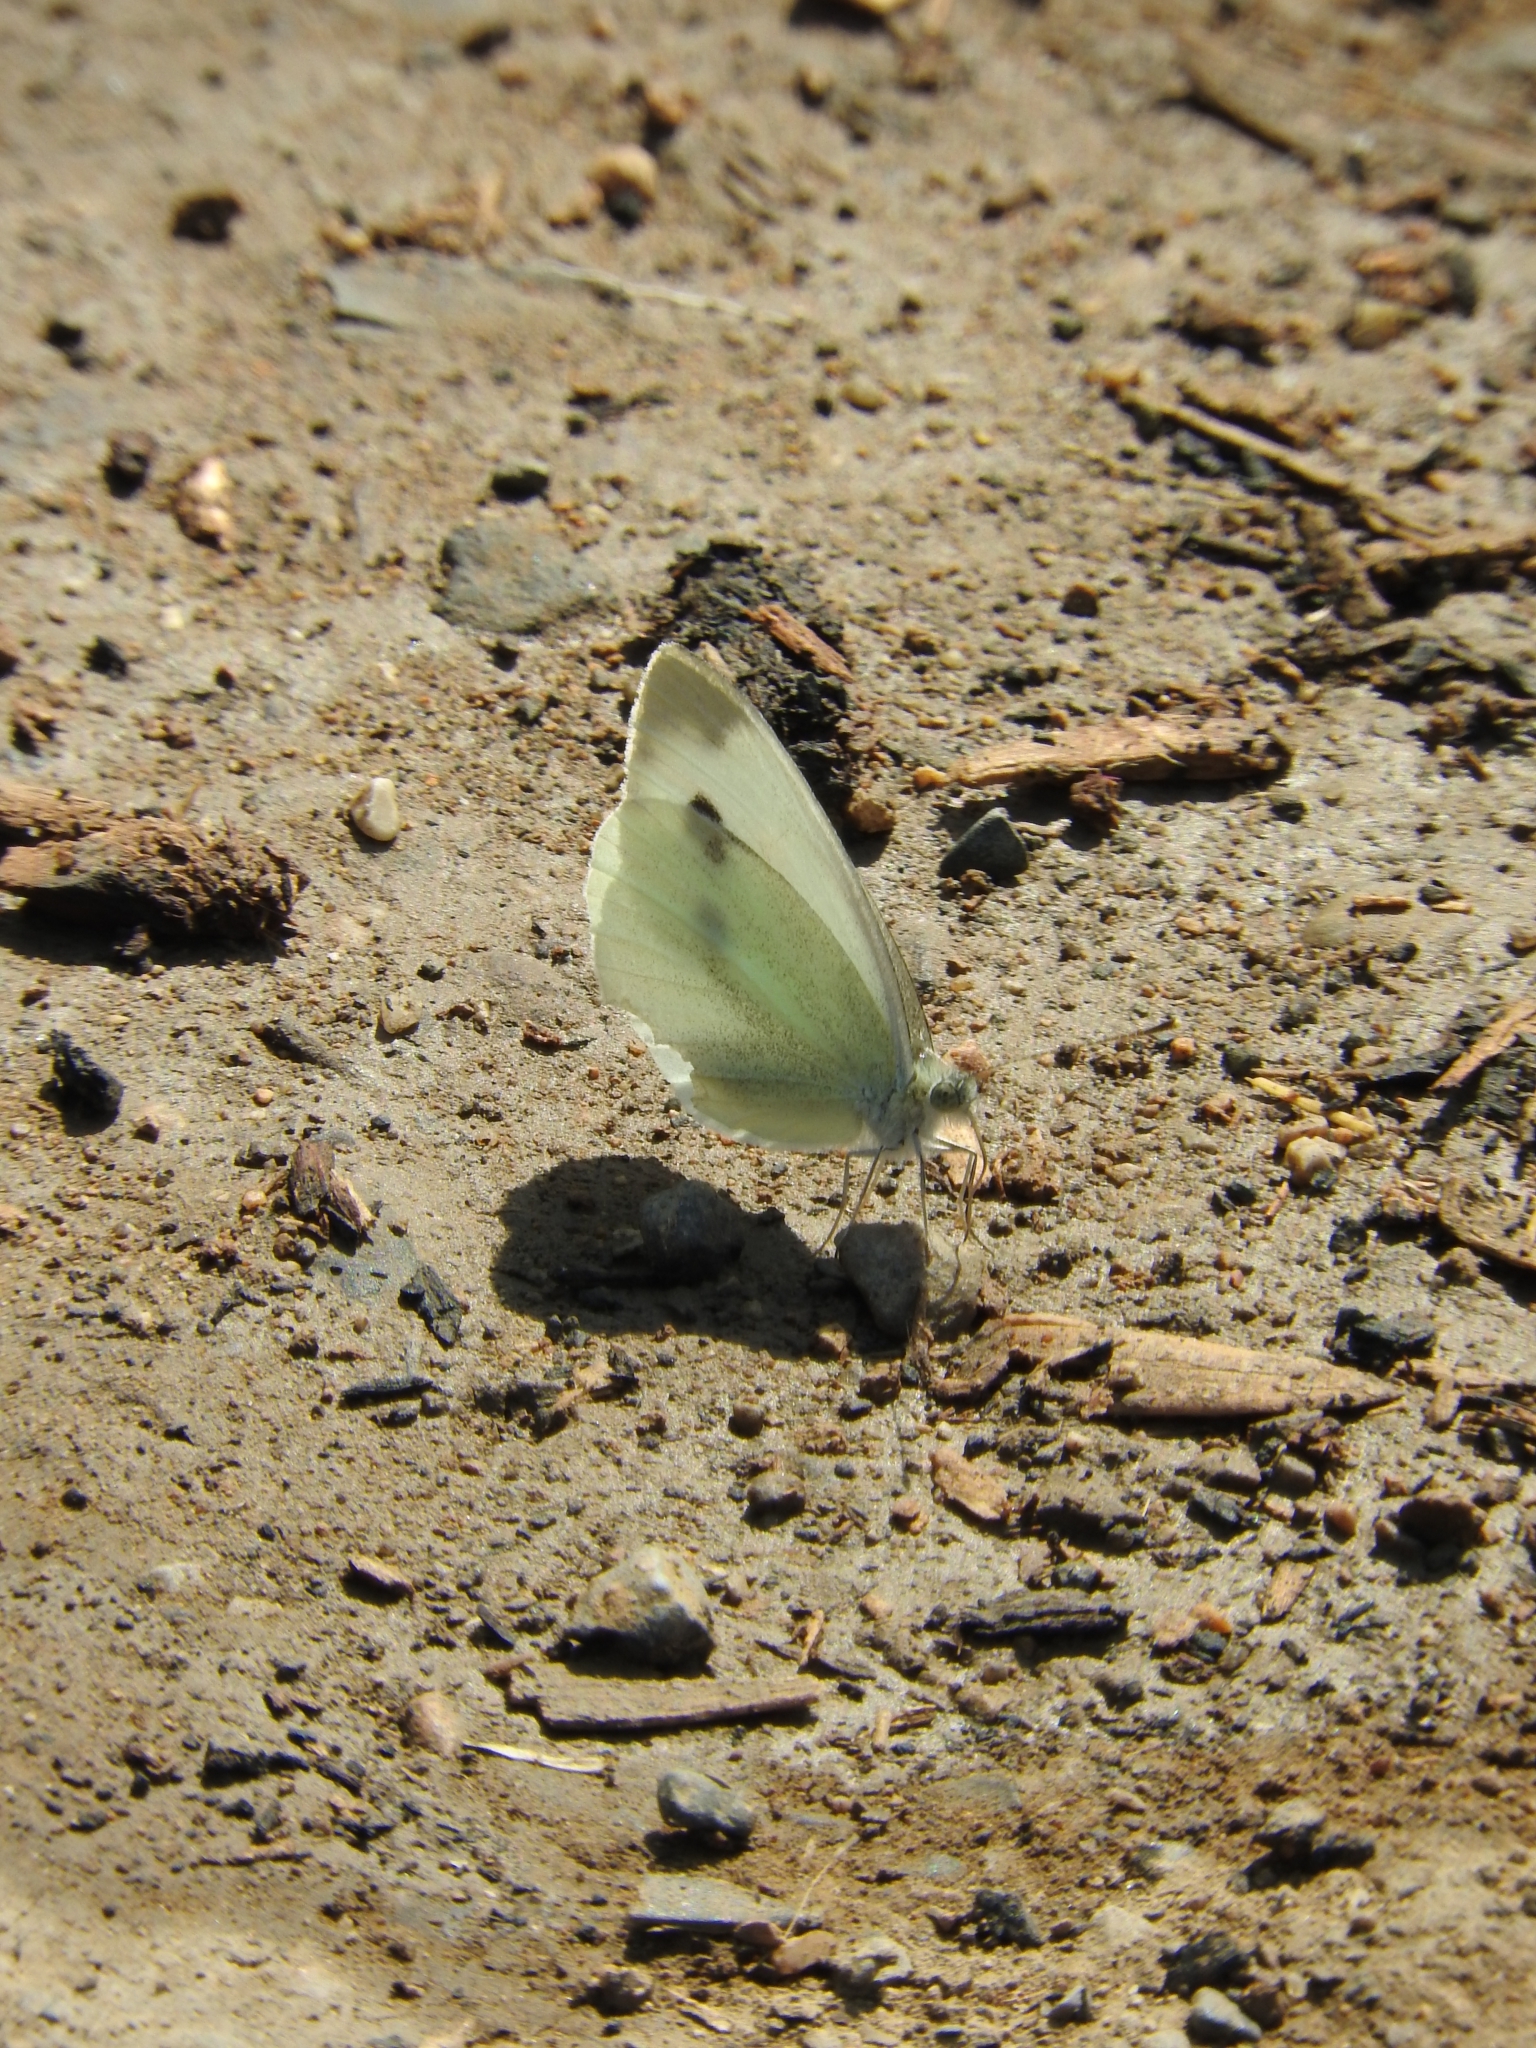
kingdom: Animalia
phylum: Arthropoda
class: Insecta
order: Lepidoptera
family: Pieridae
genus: Pieris
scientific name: Pieris brassicae
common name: Large white
